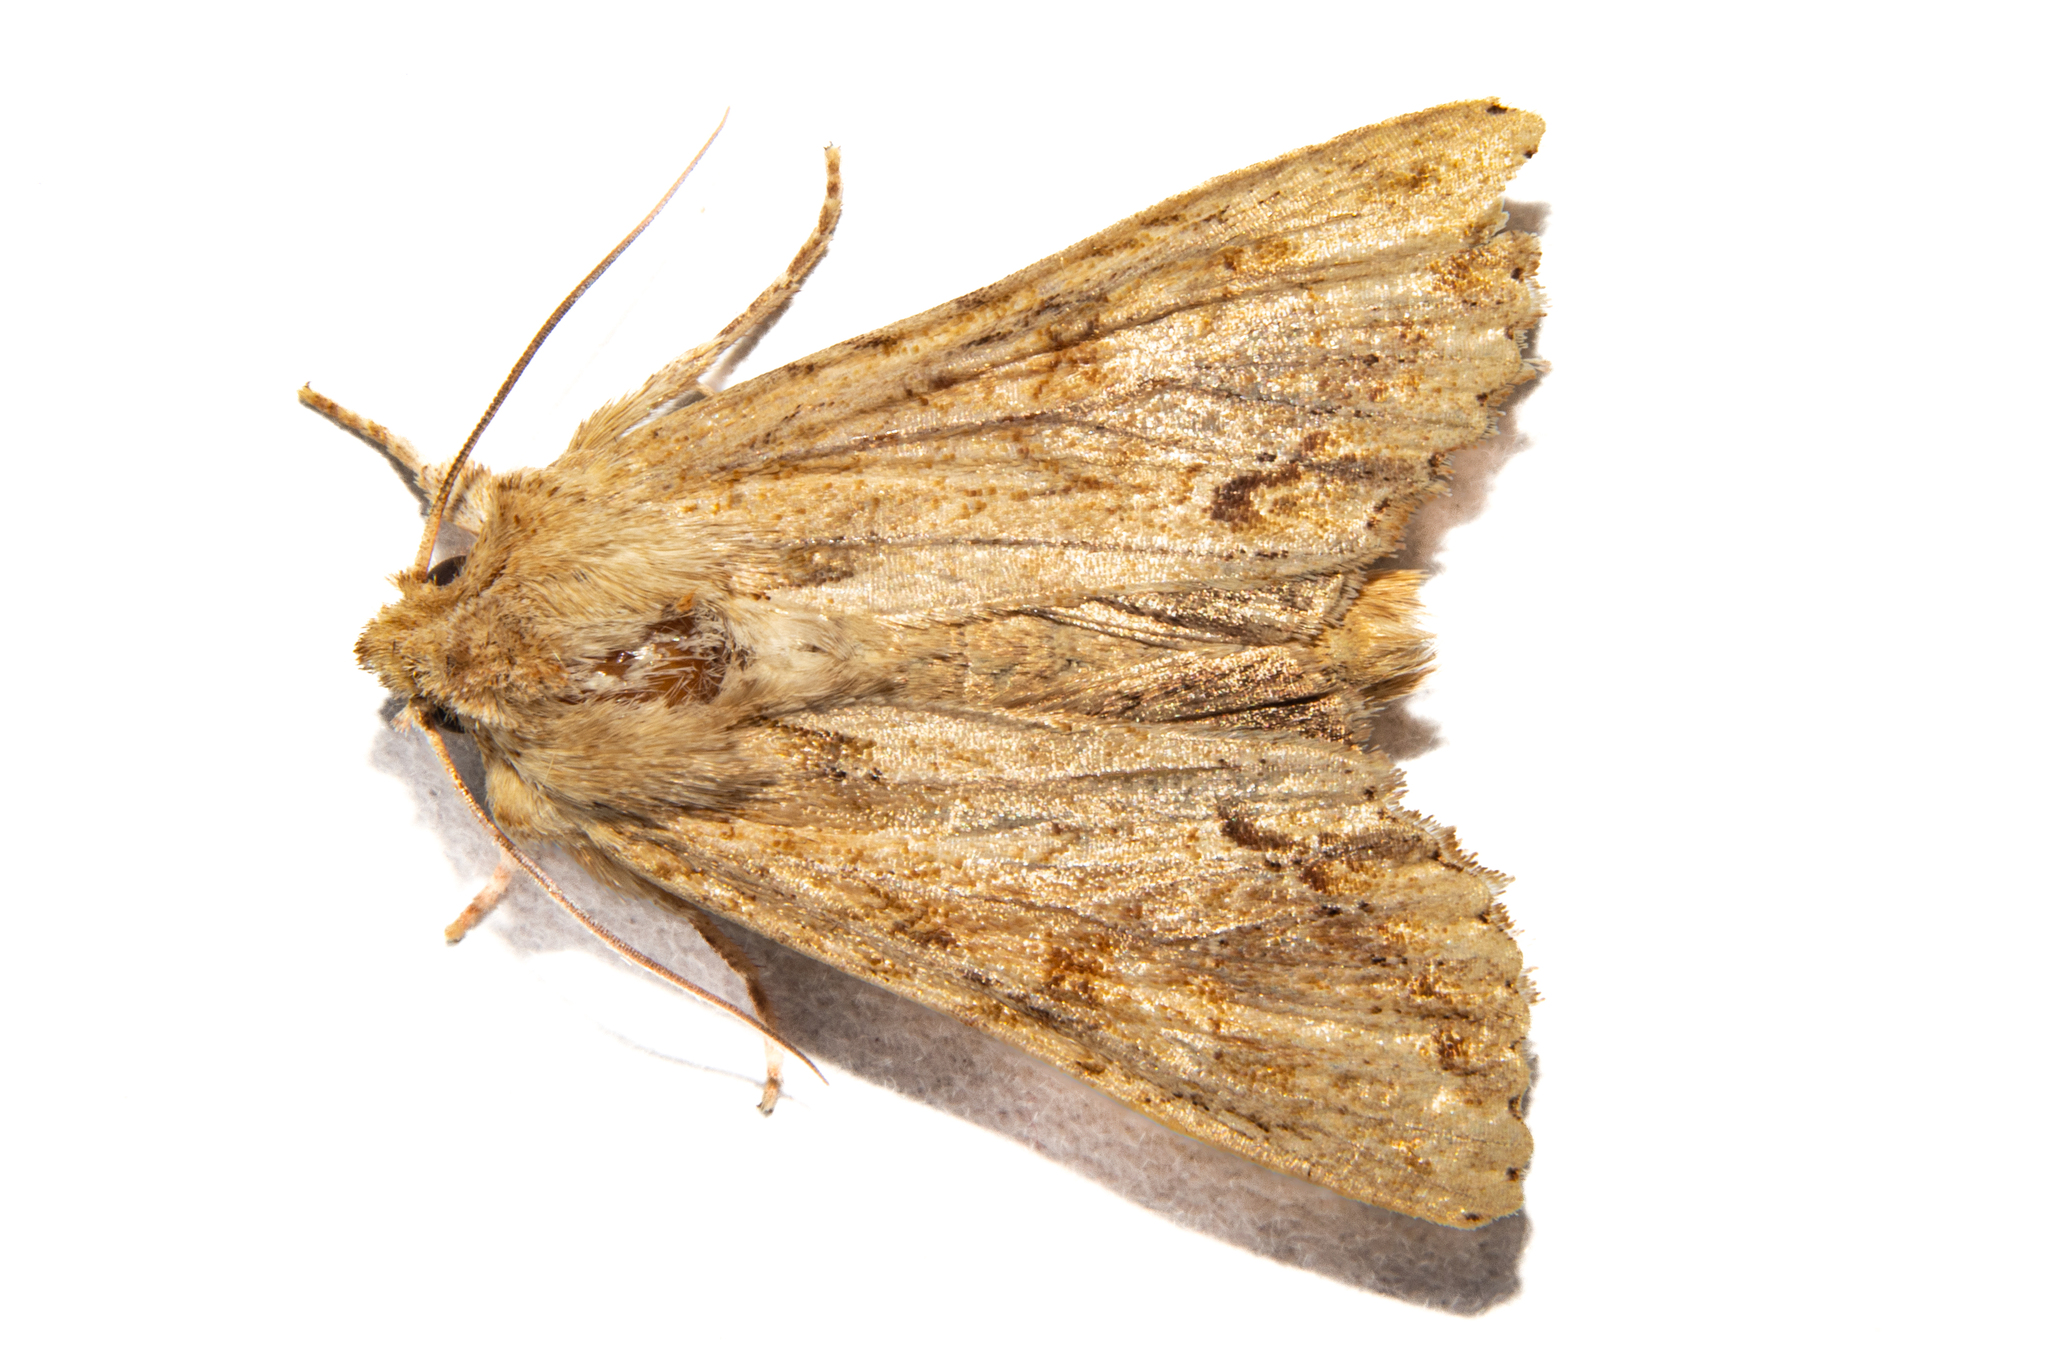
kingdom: Animalia
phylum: Arthropoda
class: Insecta
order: Lepidoptera
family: Noctuidae
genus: Ichneutica
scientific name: Ichneutica mollis
